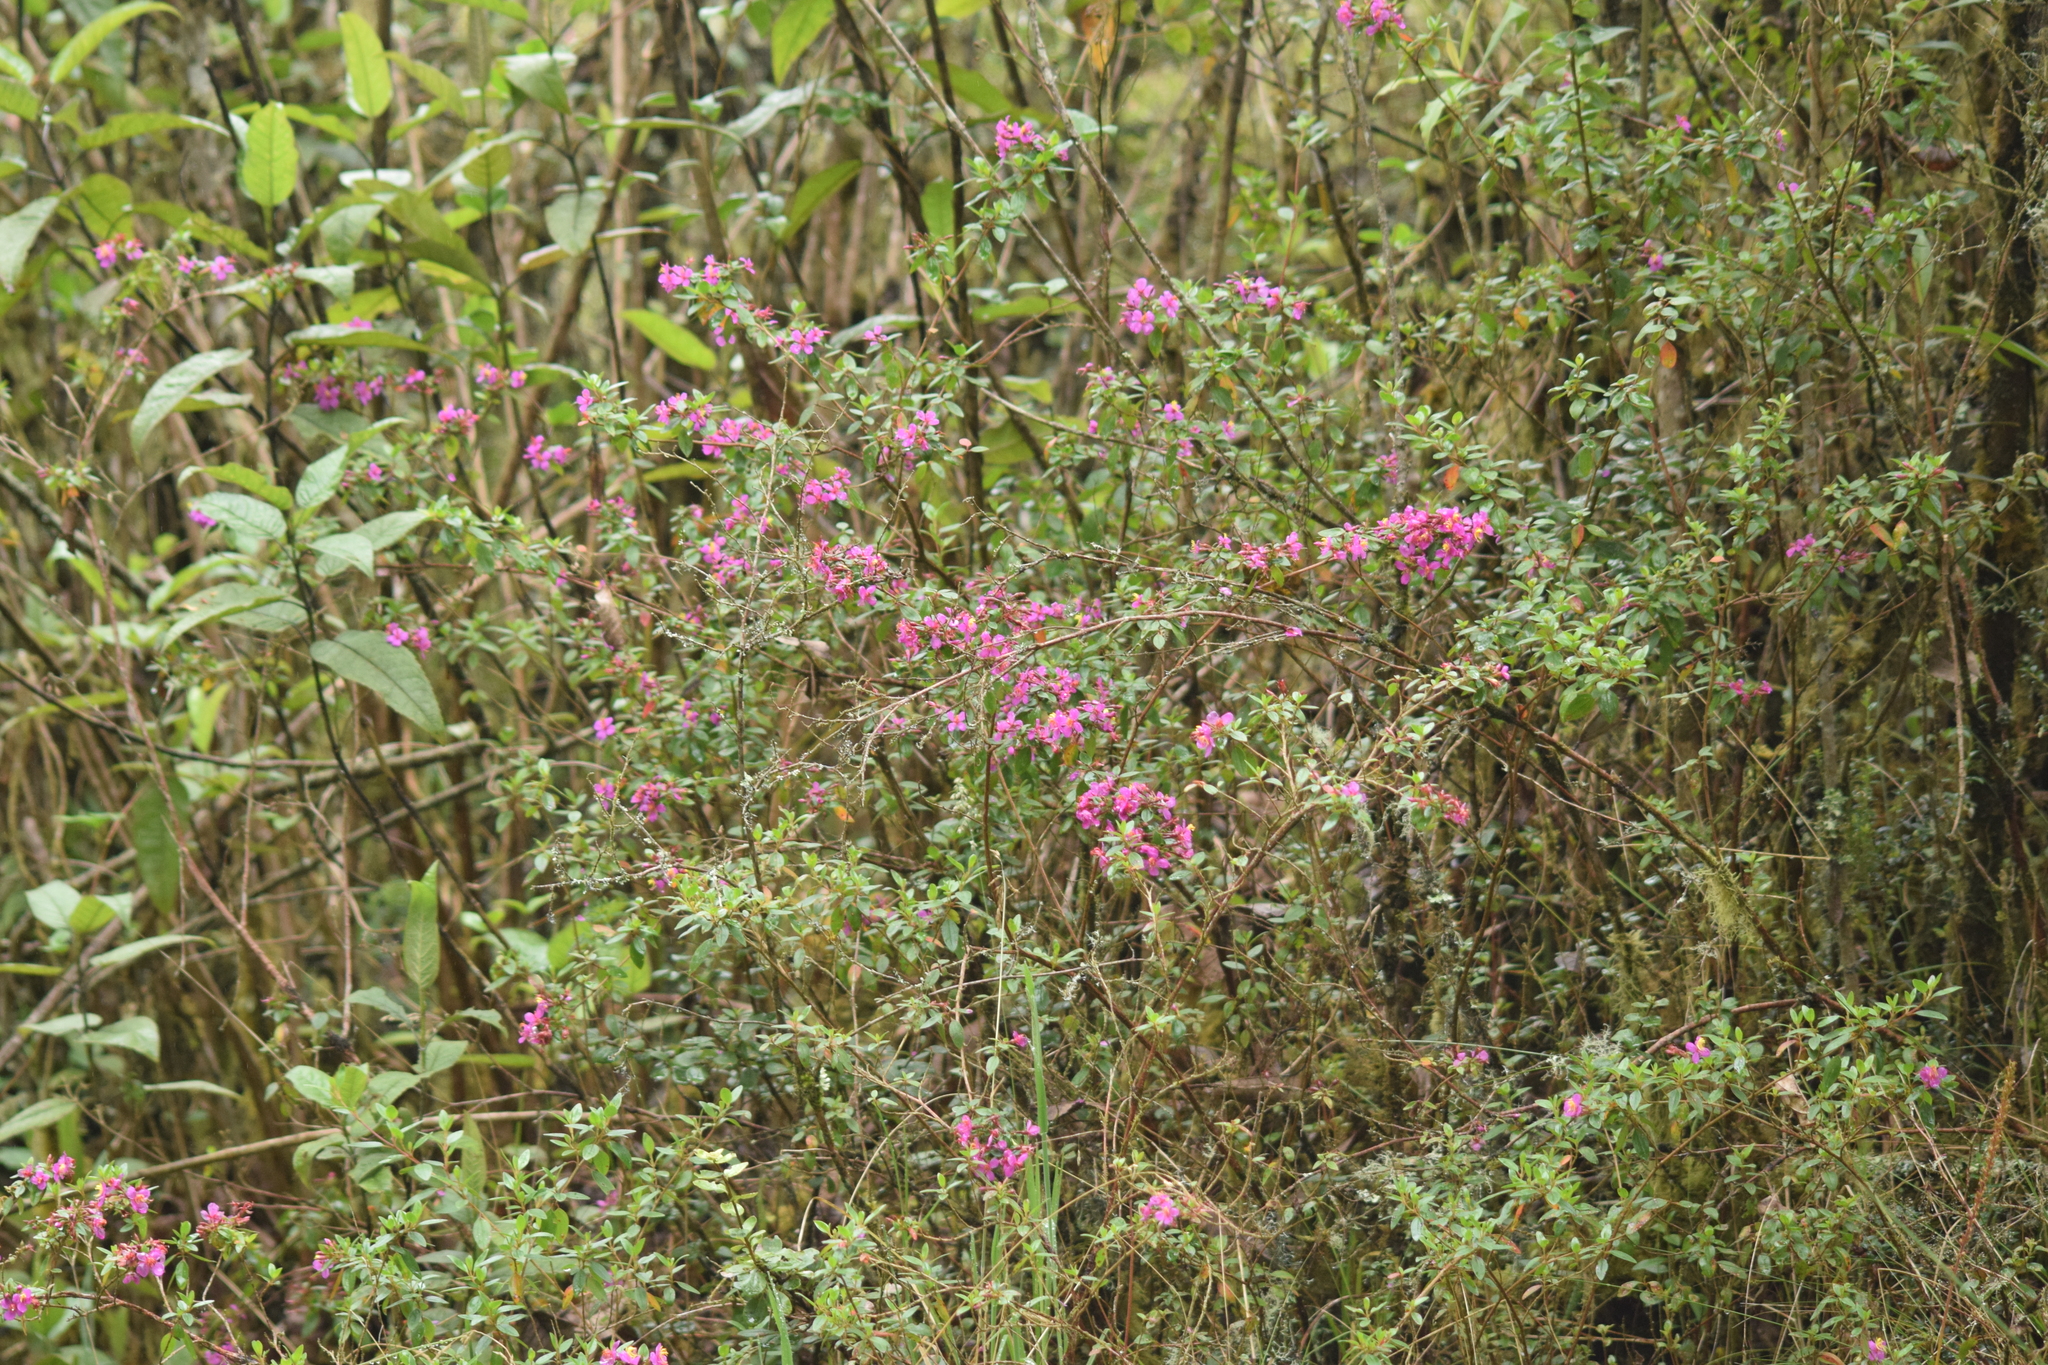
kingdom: Plantae
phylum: Tracheophyta
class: Magnoliopsida
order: Myrtales
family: Melastomataceae
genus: Monochaetum
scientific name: Monochaetum myrtoideum
